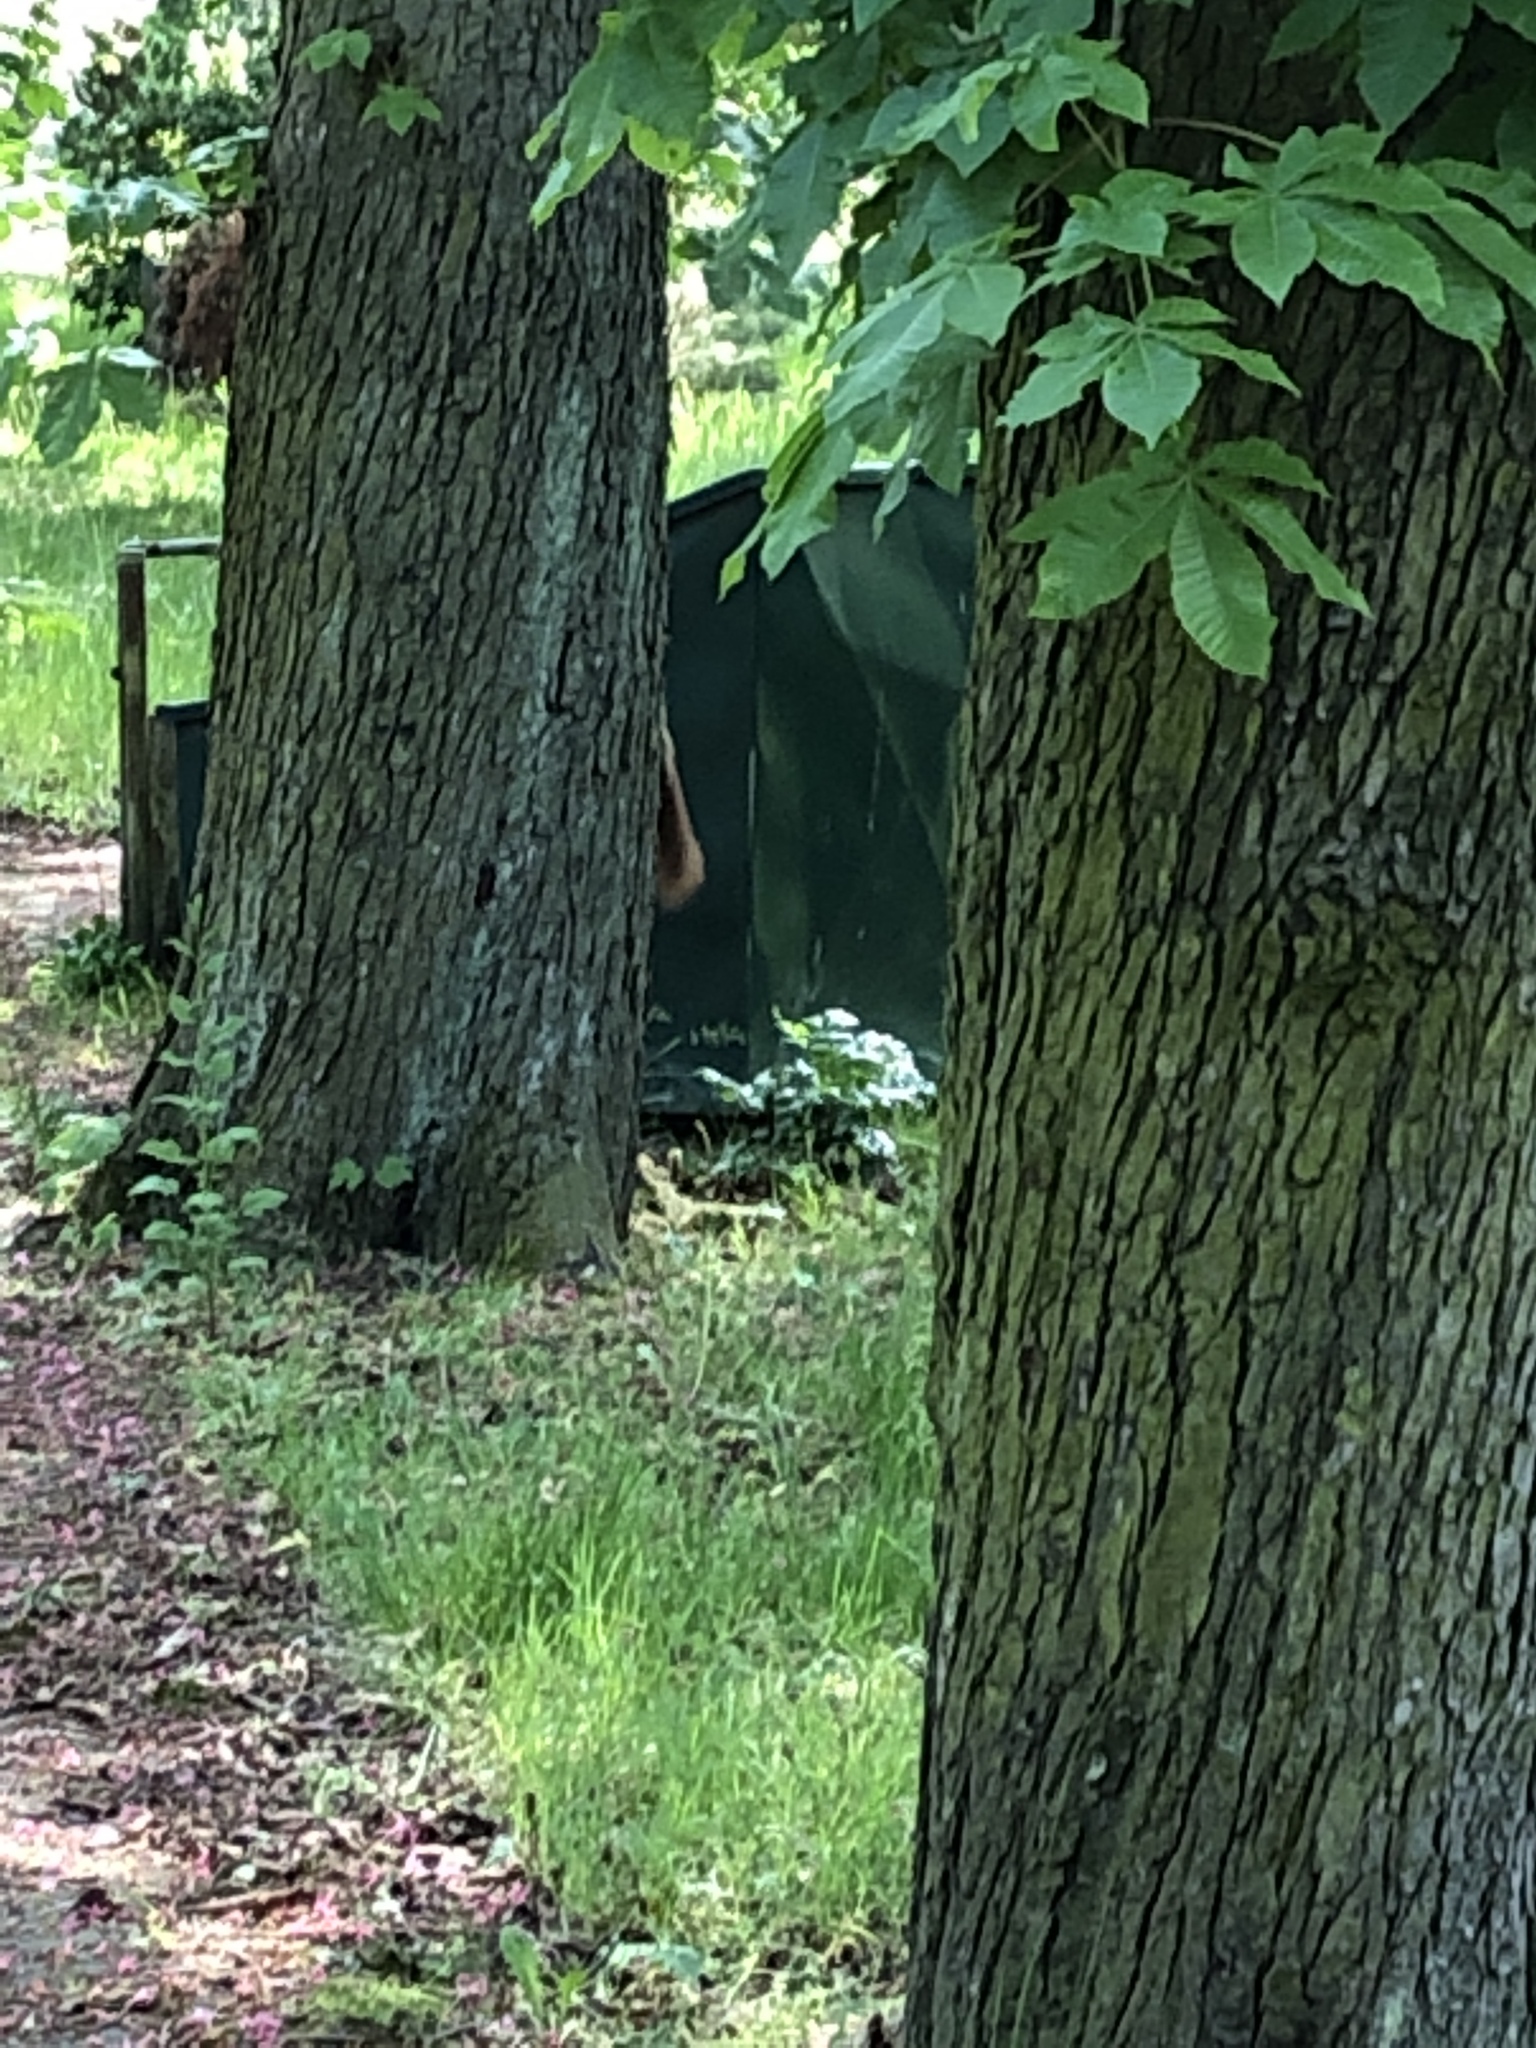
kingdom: Animalia
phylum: Chordata
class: Mammalia
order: Rodentia
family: Sciuridae
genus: Sciurus
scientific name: Sciurus vulgaris
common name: Eurasian red squirrel
